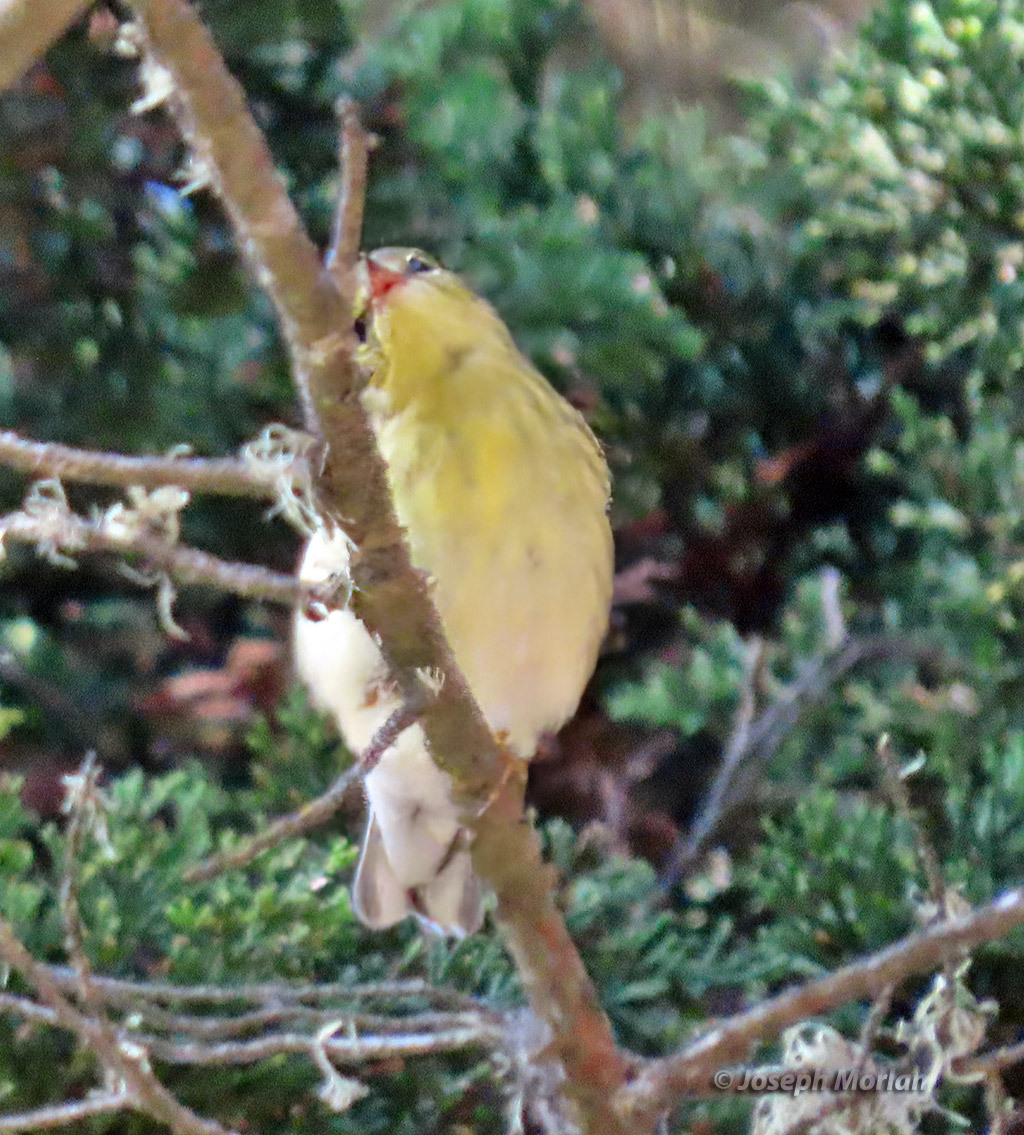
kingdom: Animalia
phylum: Chordata
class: Aves
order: Passeriformes
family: Parulidae
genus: Setophaga
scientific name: Setophaga striata
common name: Blackpoll warbler
